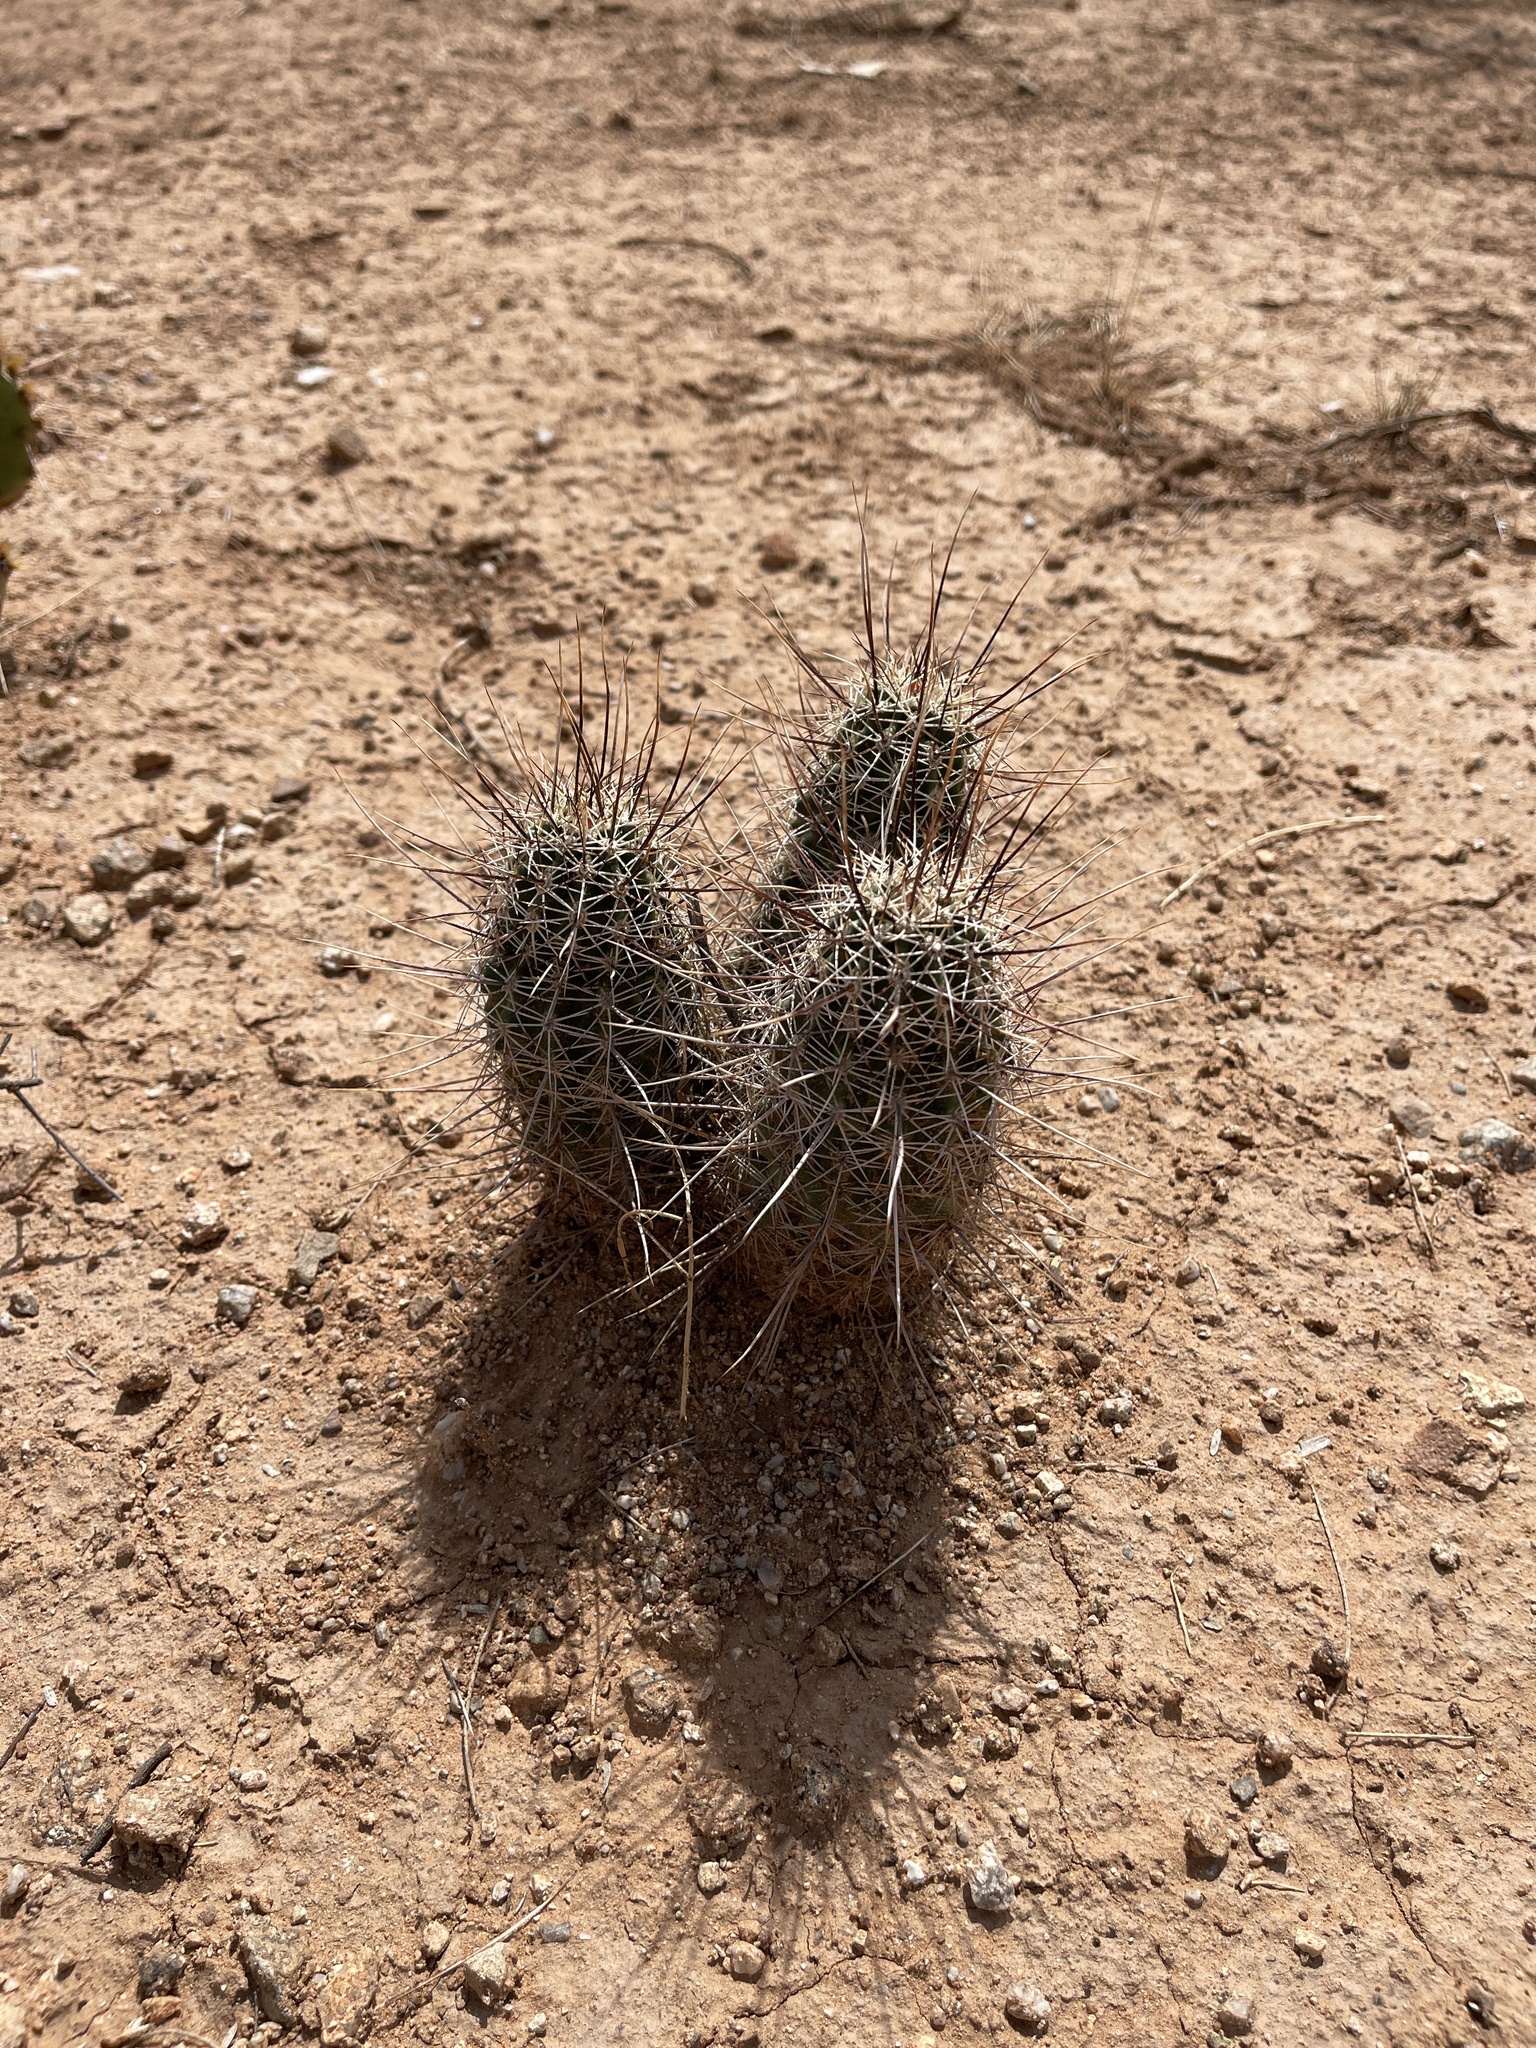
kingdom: Plantae
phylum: Tracheophyta
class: Magnoliopsida
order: Caryophyllales
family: Cactaceae
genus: Echinocereus
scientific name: Echinocereus fasciculatus
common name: Bundle hedgehog
